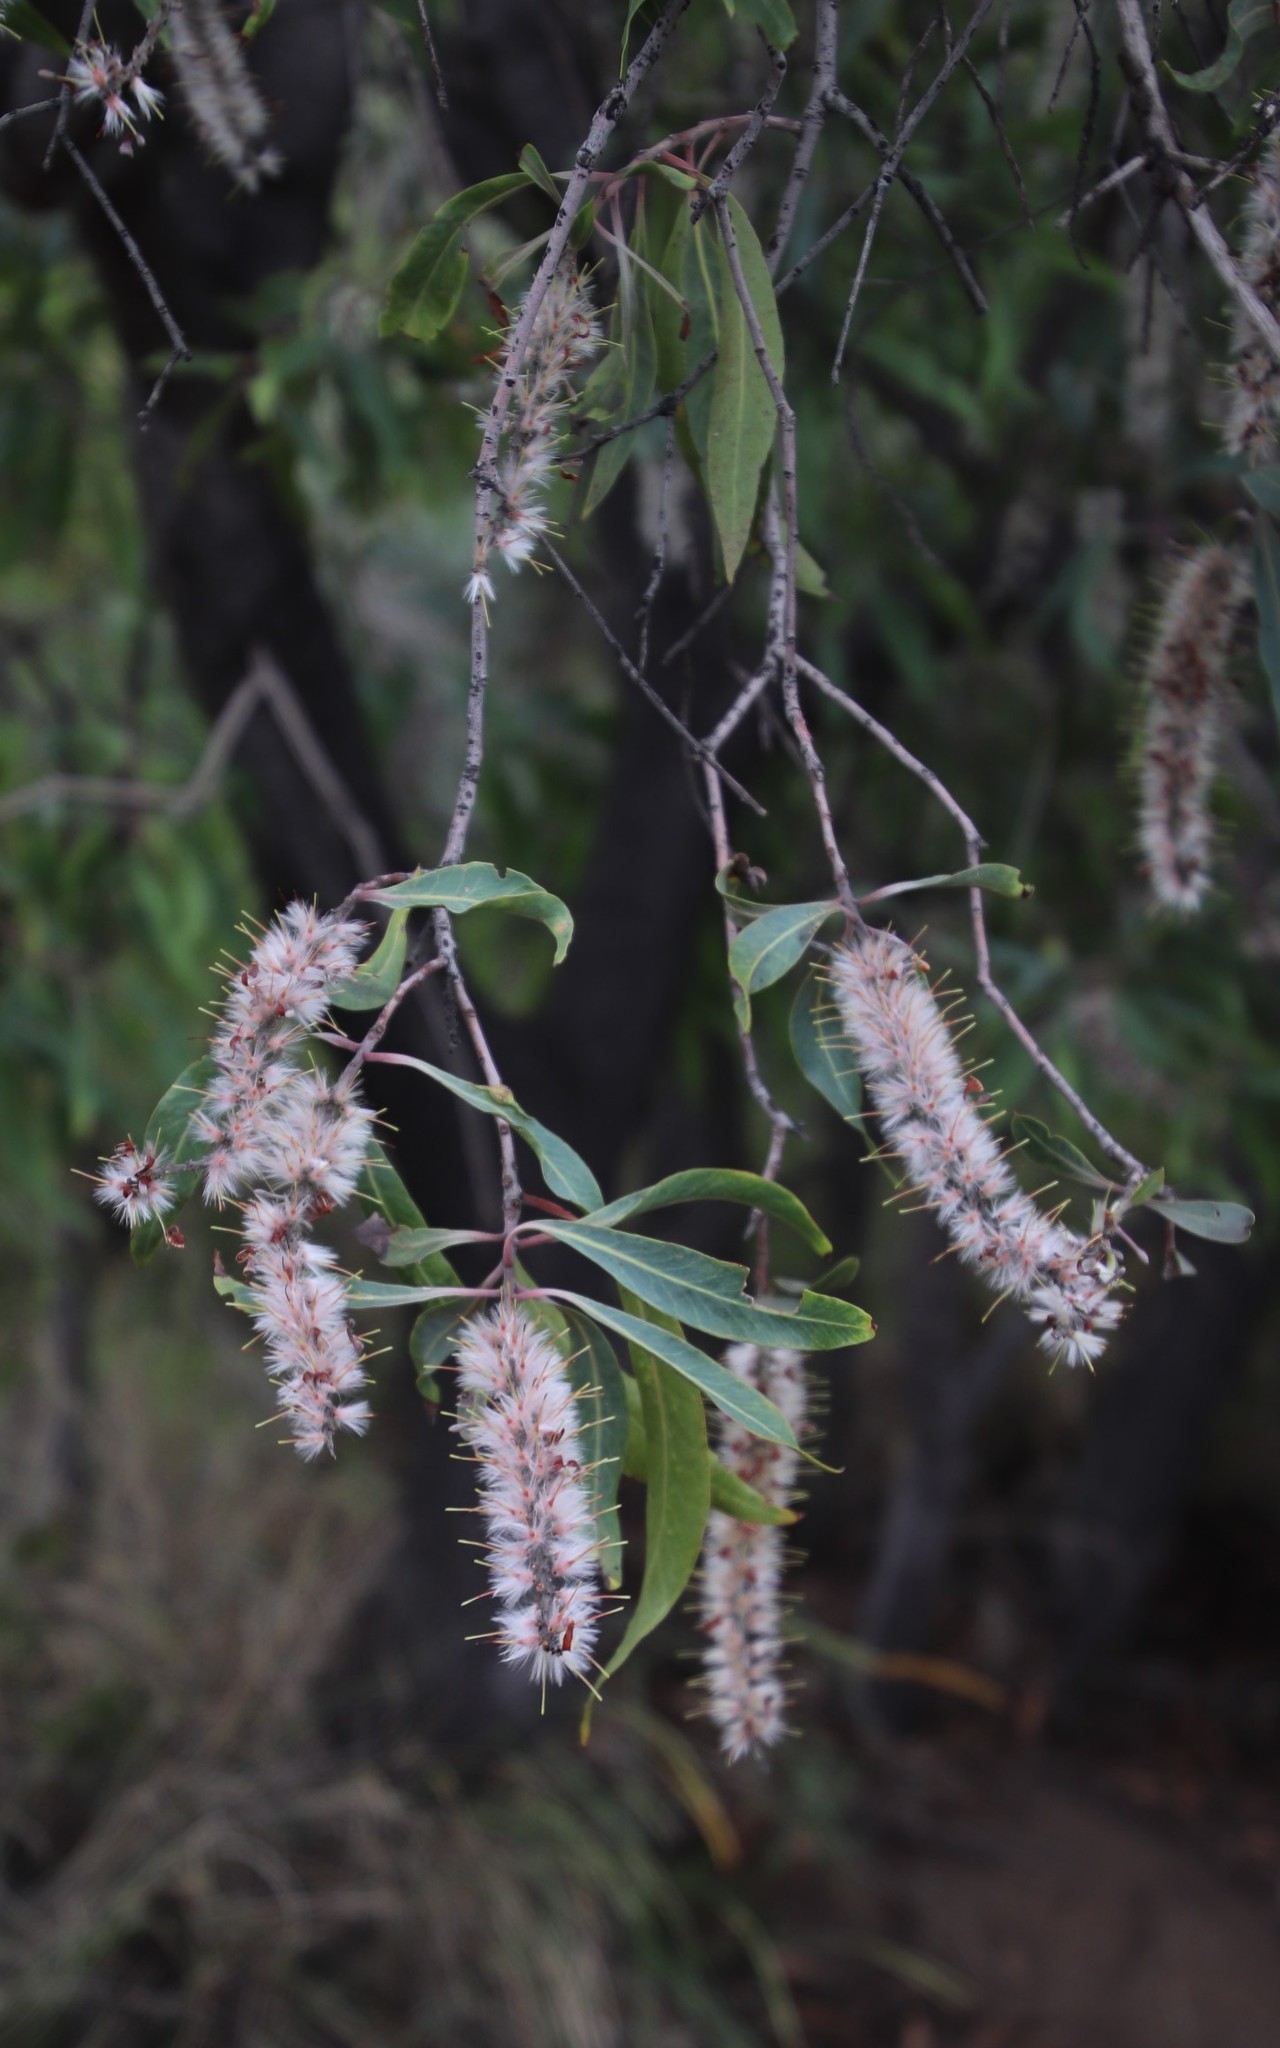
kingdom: Plantae
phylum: Tracheophyta
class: Magnoliopsida
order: Proteales
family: Proteaceae
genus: Faurea
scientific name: Faurea saligna
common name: African bean
